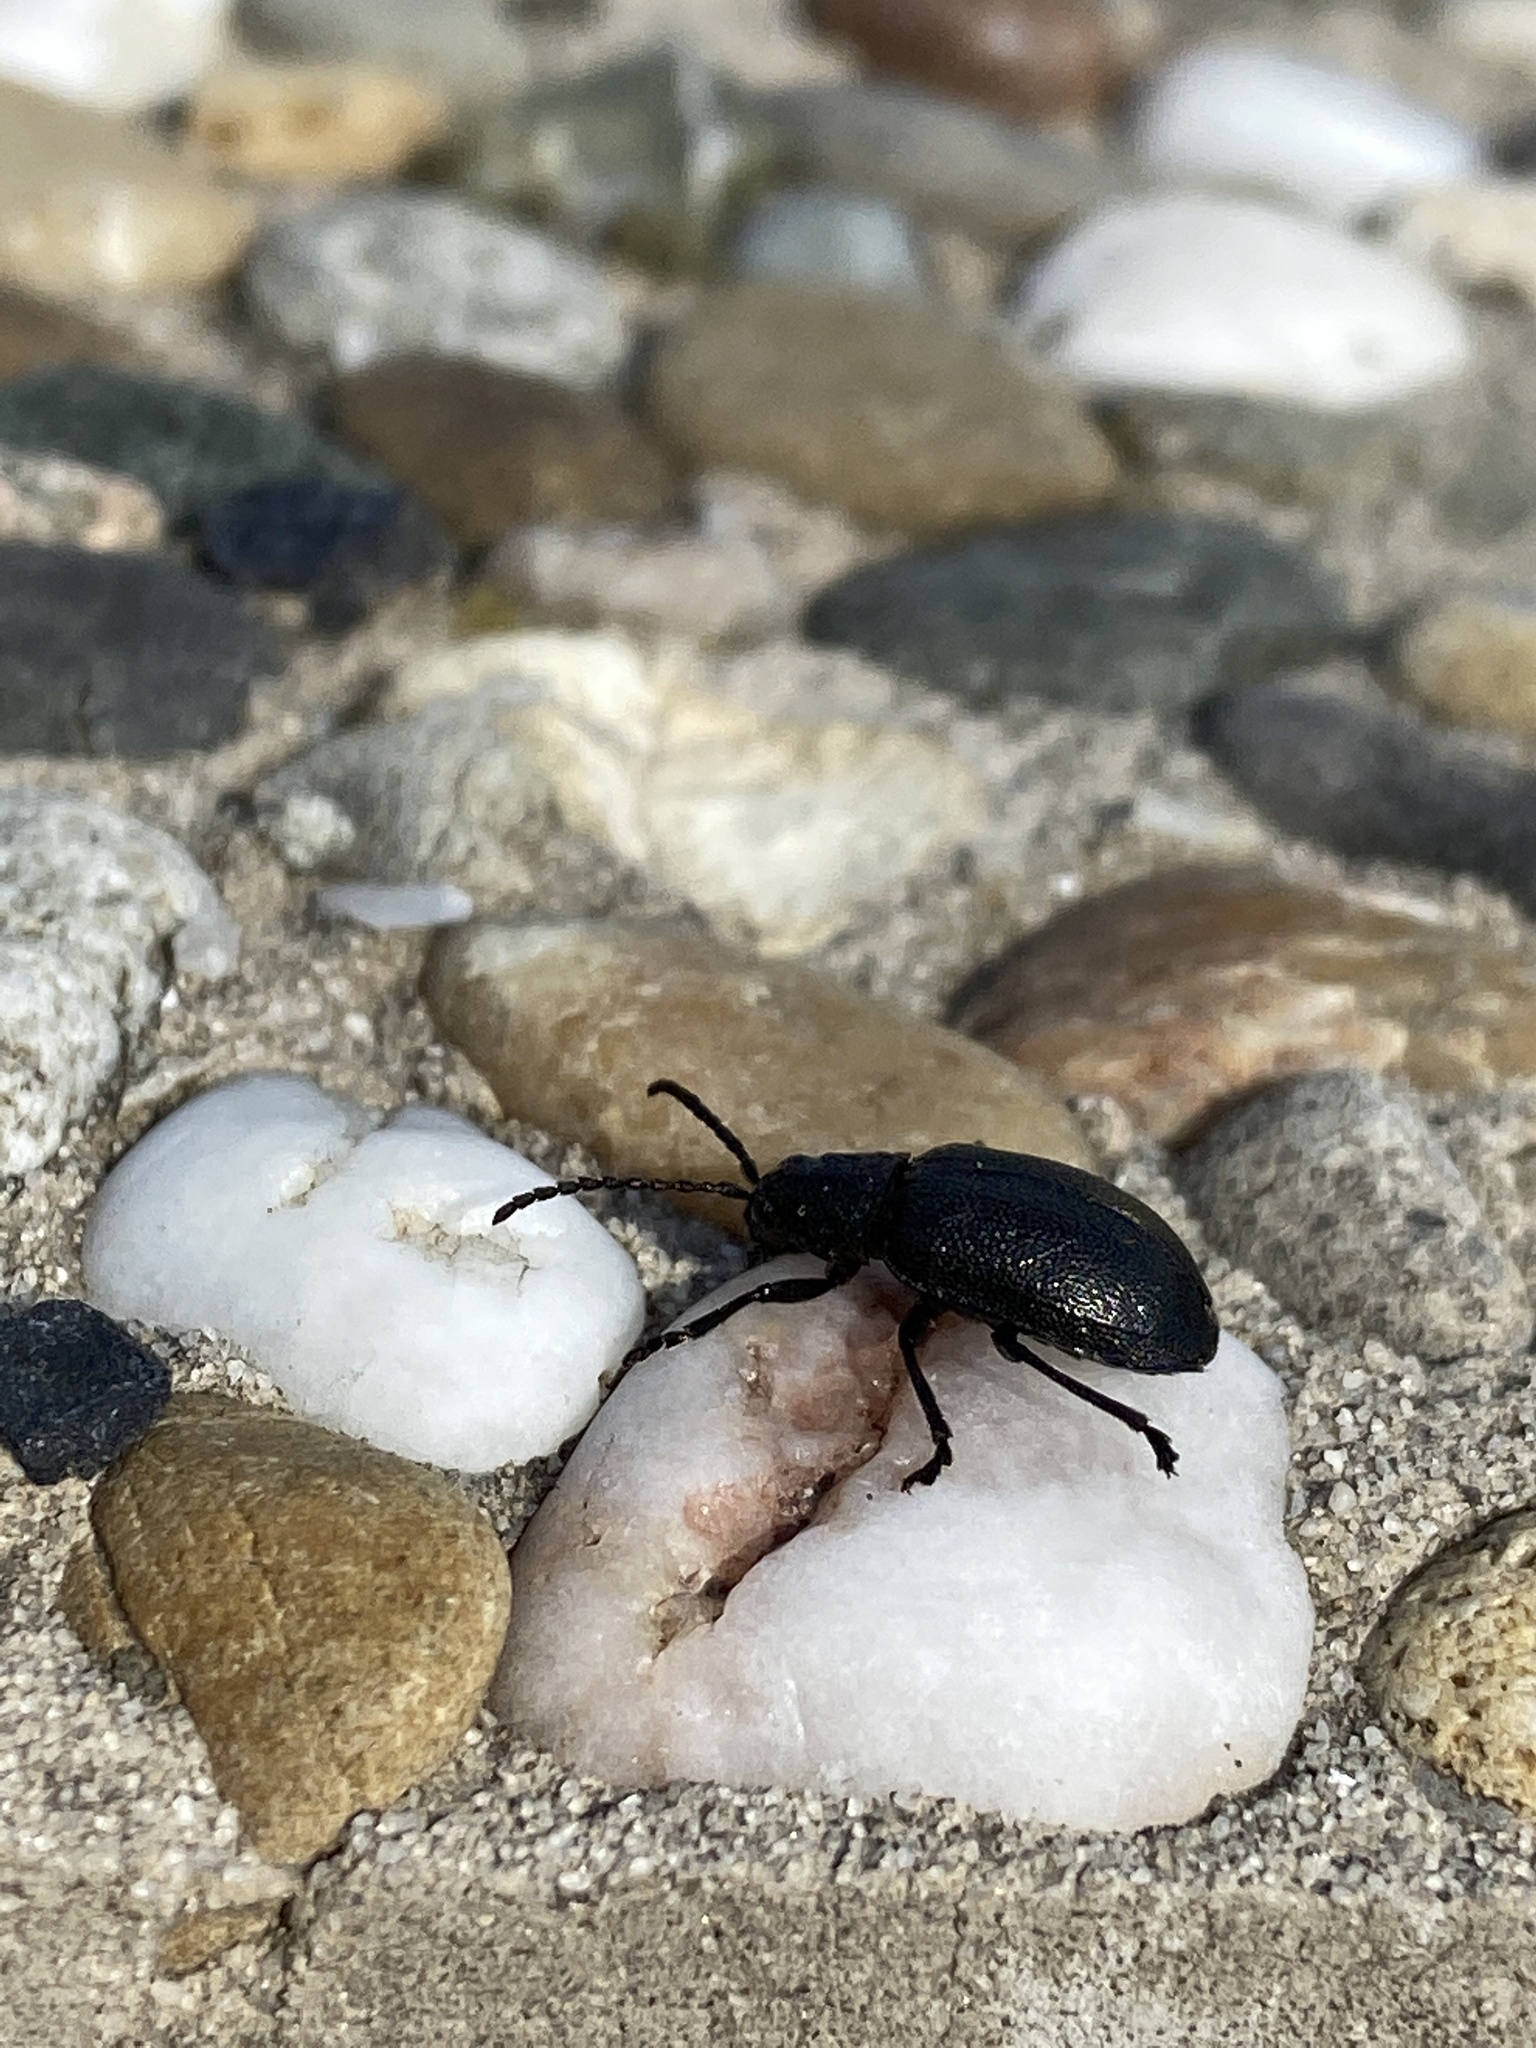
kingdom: Animalia
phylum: Arthropoda
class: Insecta
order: Coleoptera
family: Chrysomelidae
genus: Galeruca
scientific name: Galeruca tanaceti
